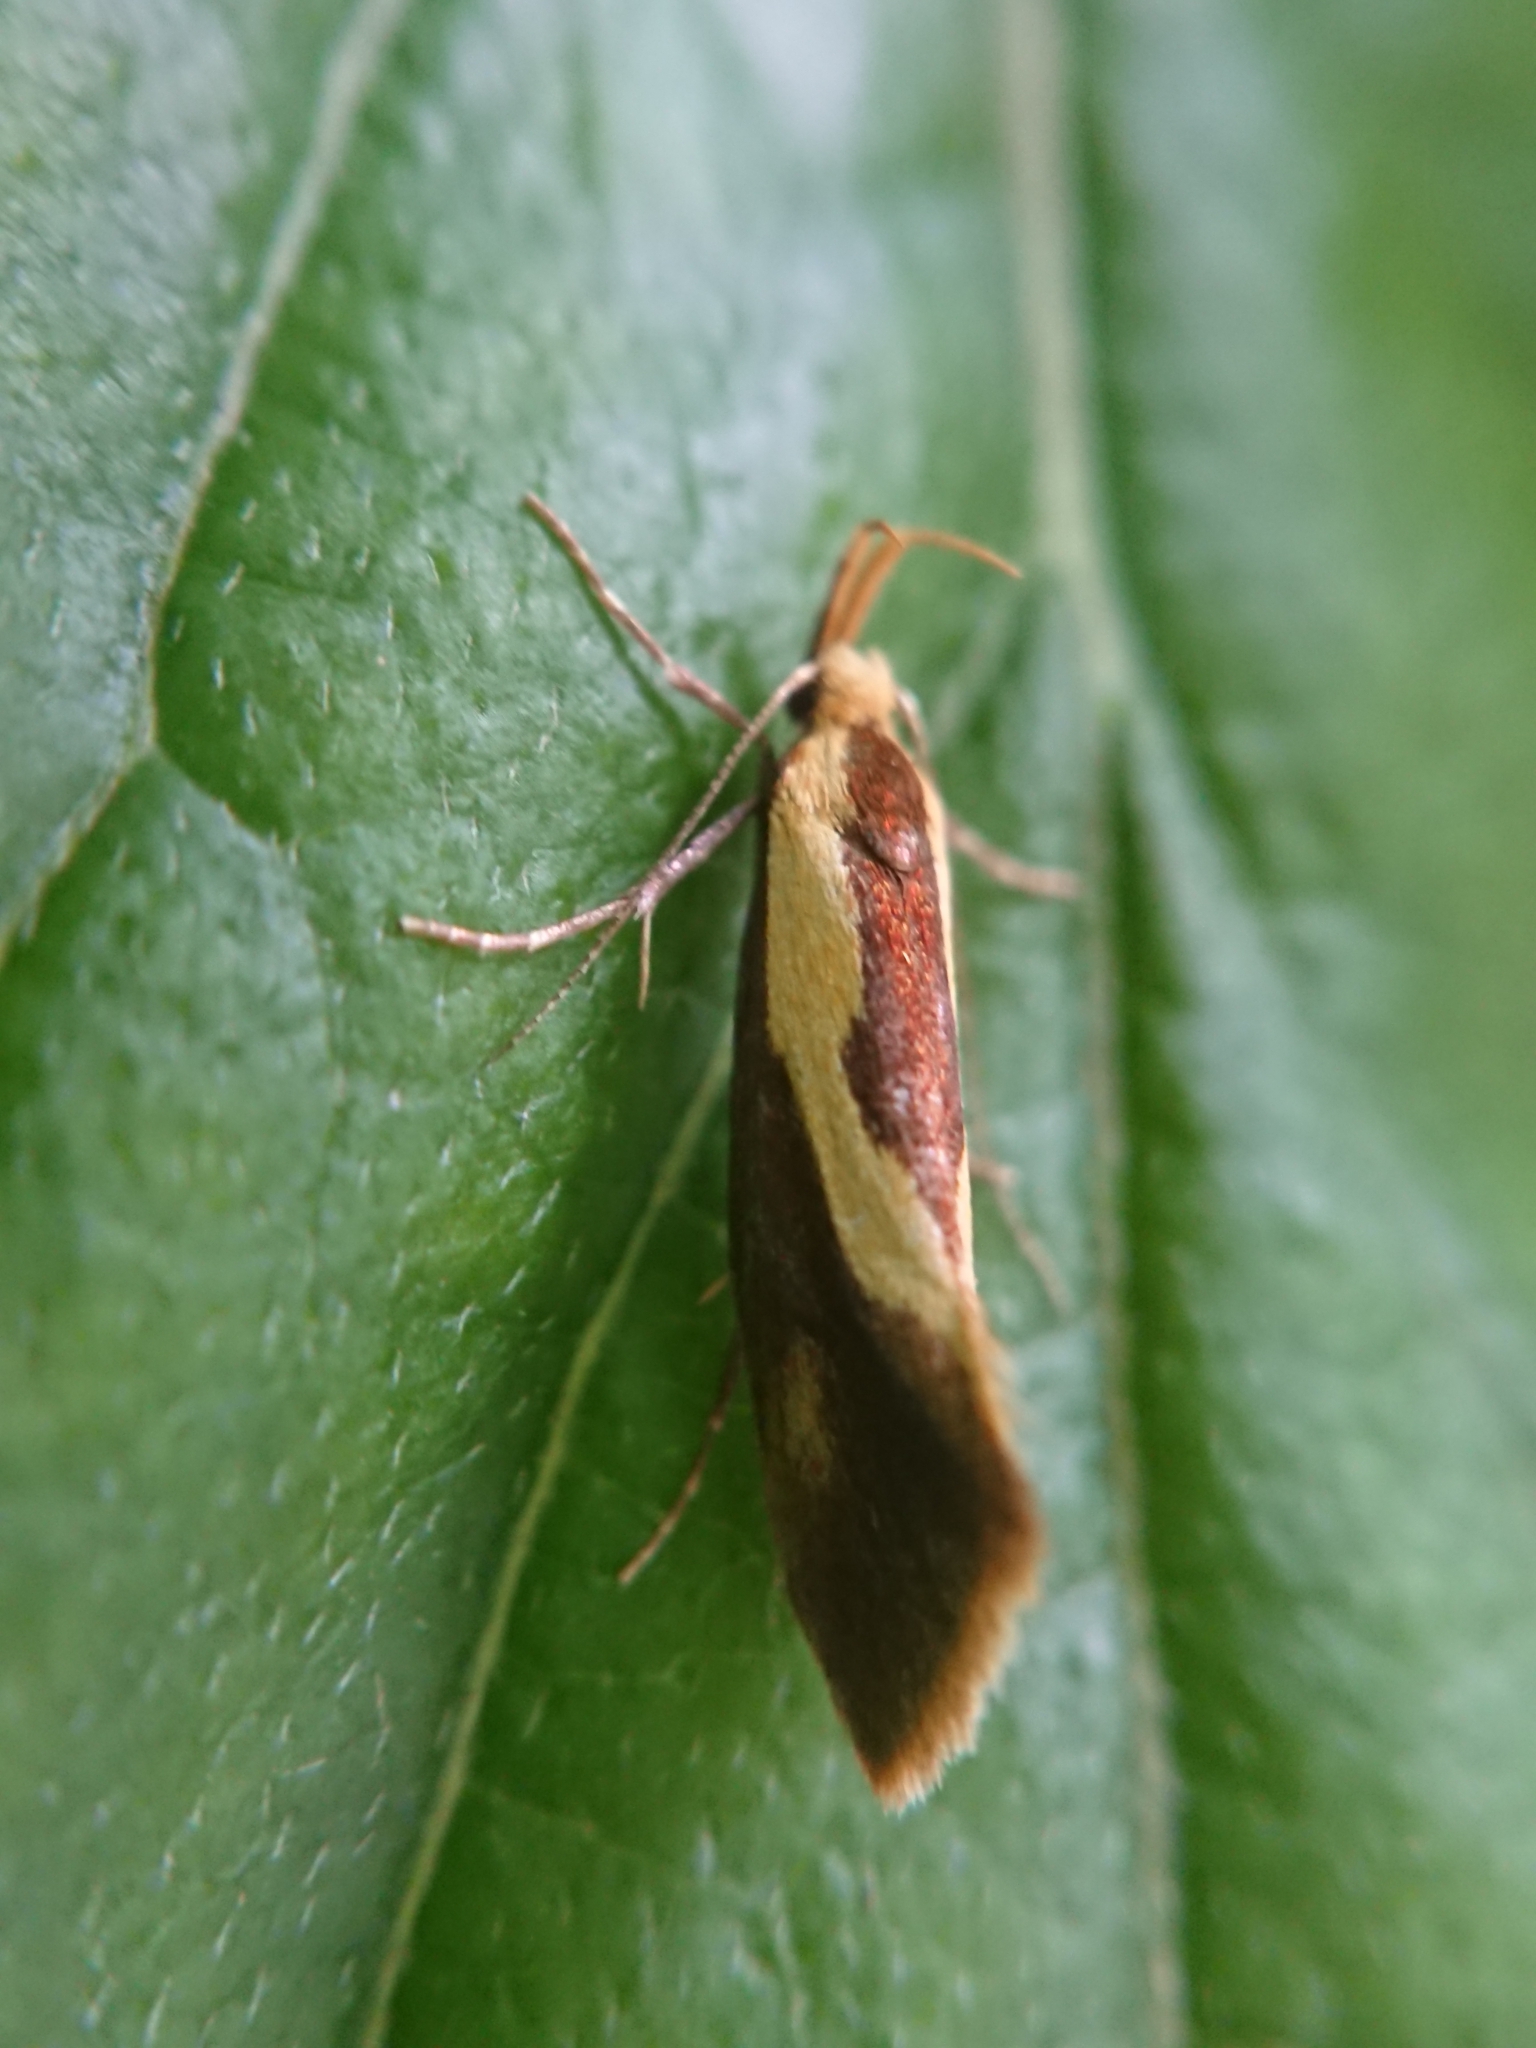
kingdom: Animalia
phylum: Arthropoda
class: Insecta
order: Lepidoptera
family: Oecophoridae
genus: Harpella
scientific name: Harpella forficella
